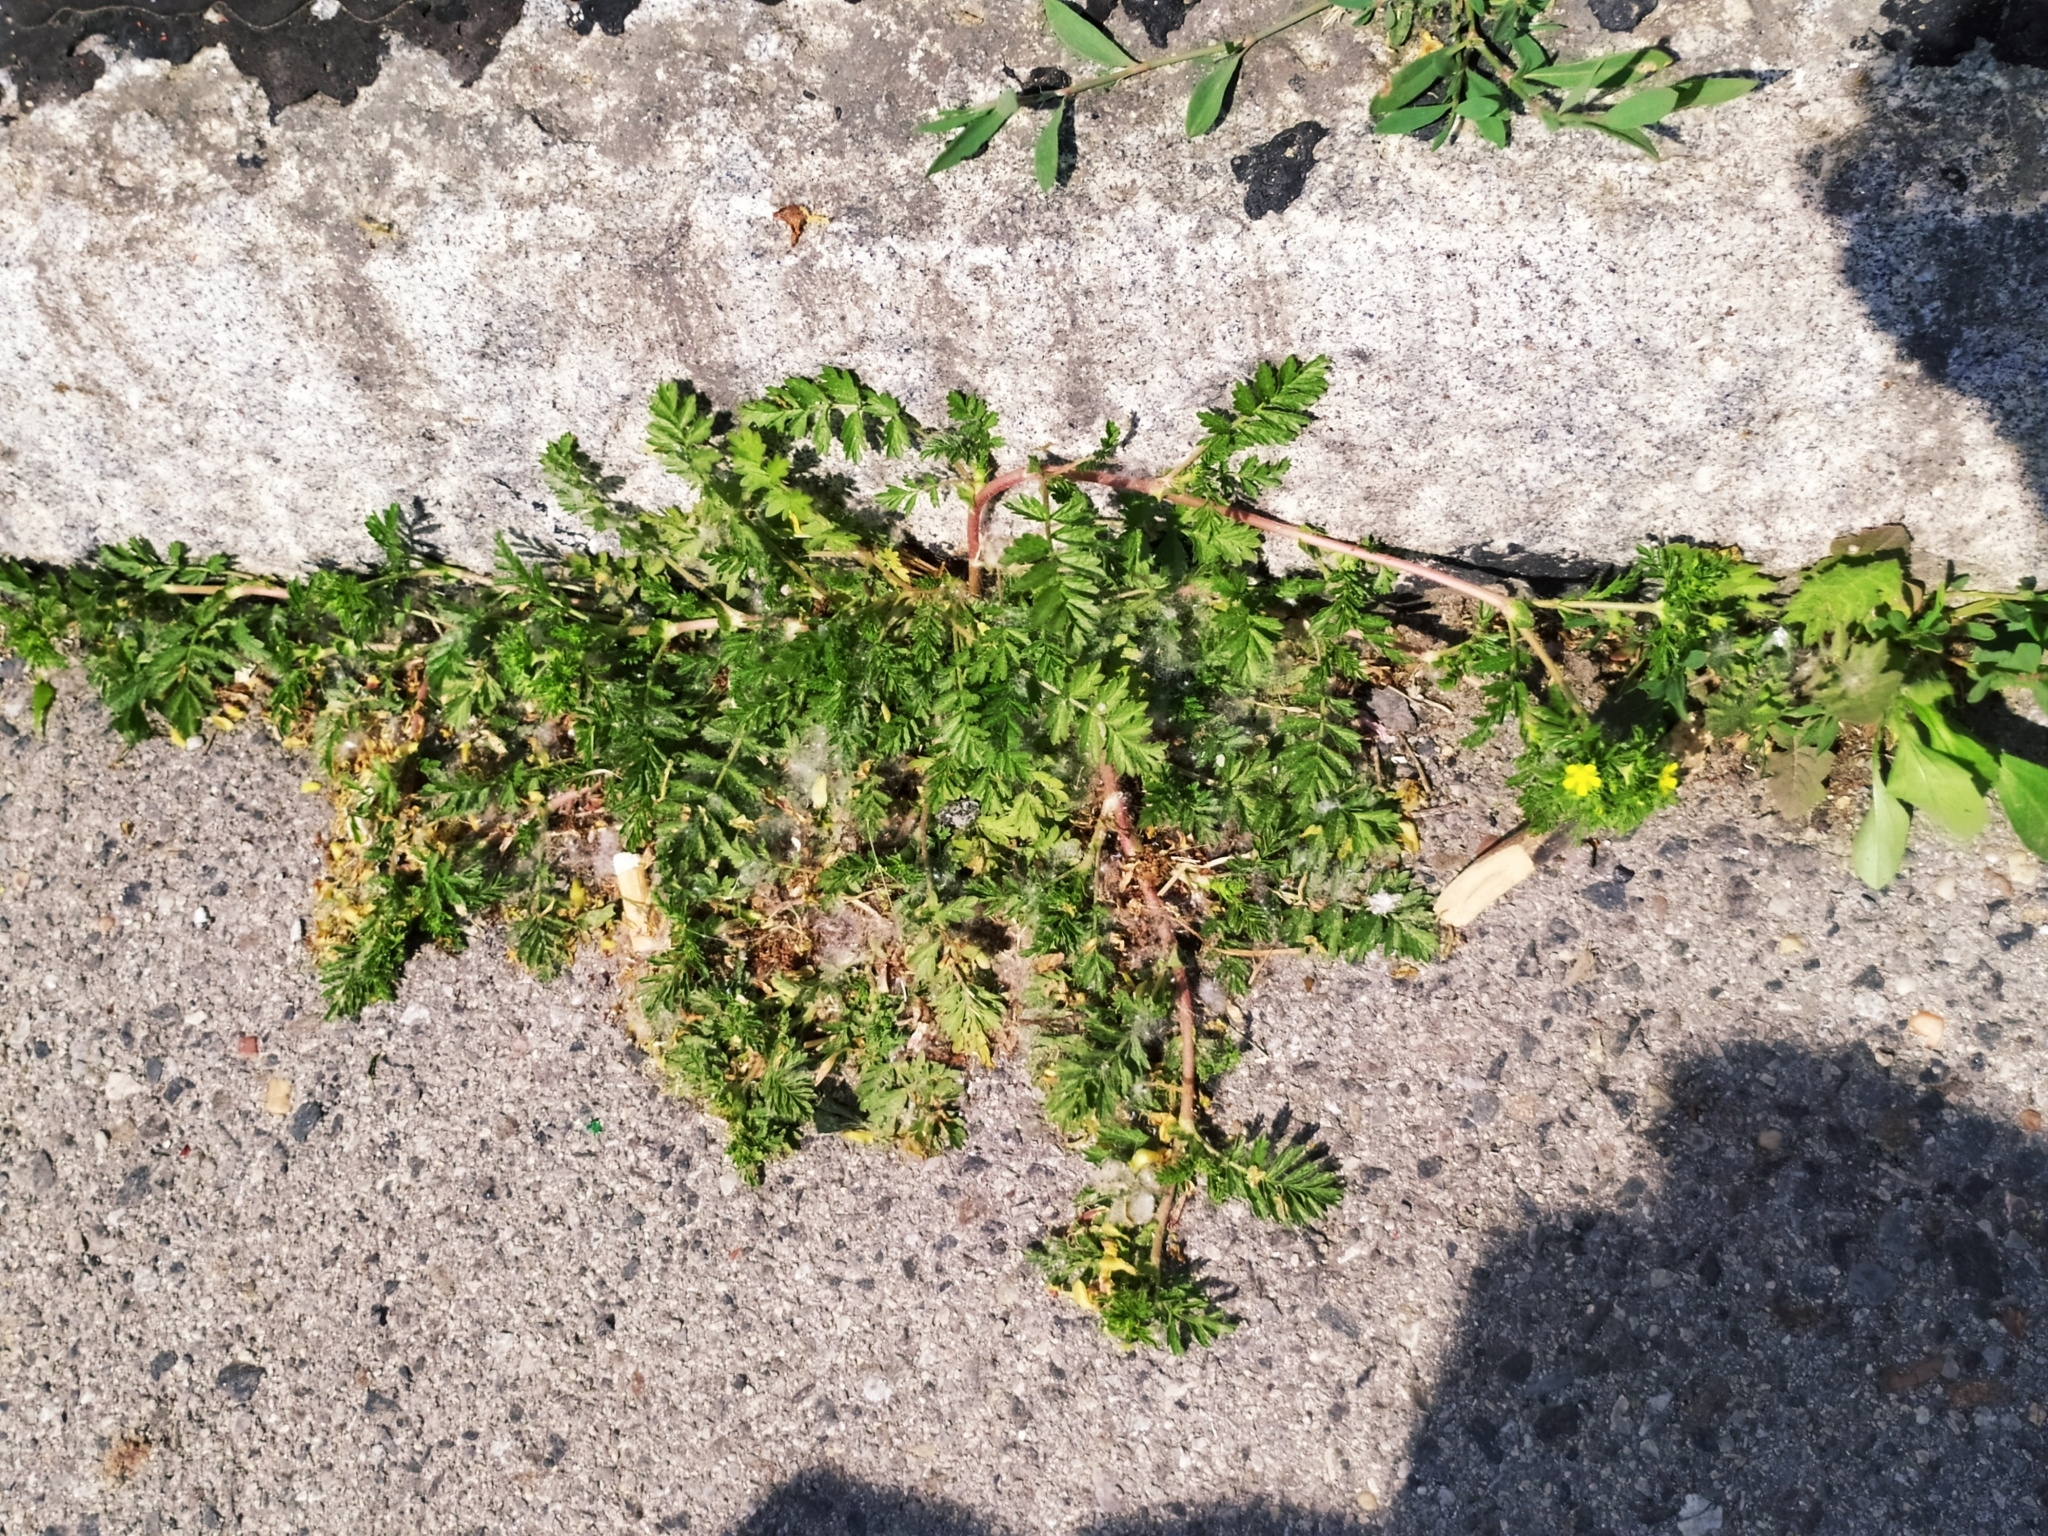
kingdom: Plantae
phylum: Tracheophyta
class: Magnoliopsida
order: Rosales
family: Rosaceae
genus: Potentilla
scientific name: Potentilla supina
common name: Prostrate cinquefoil
